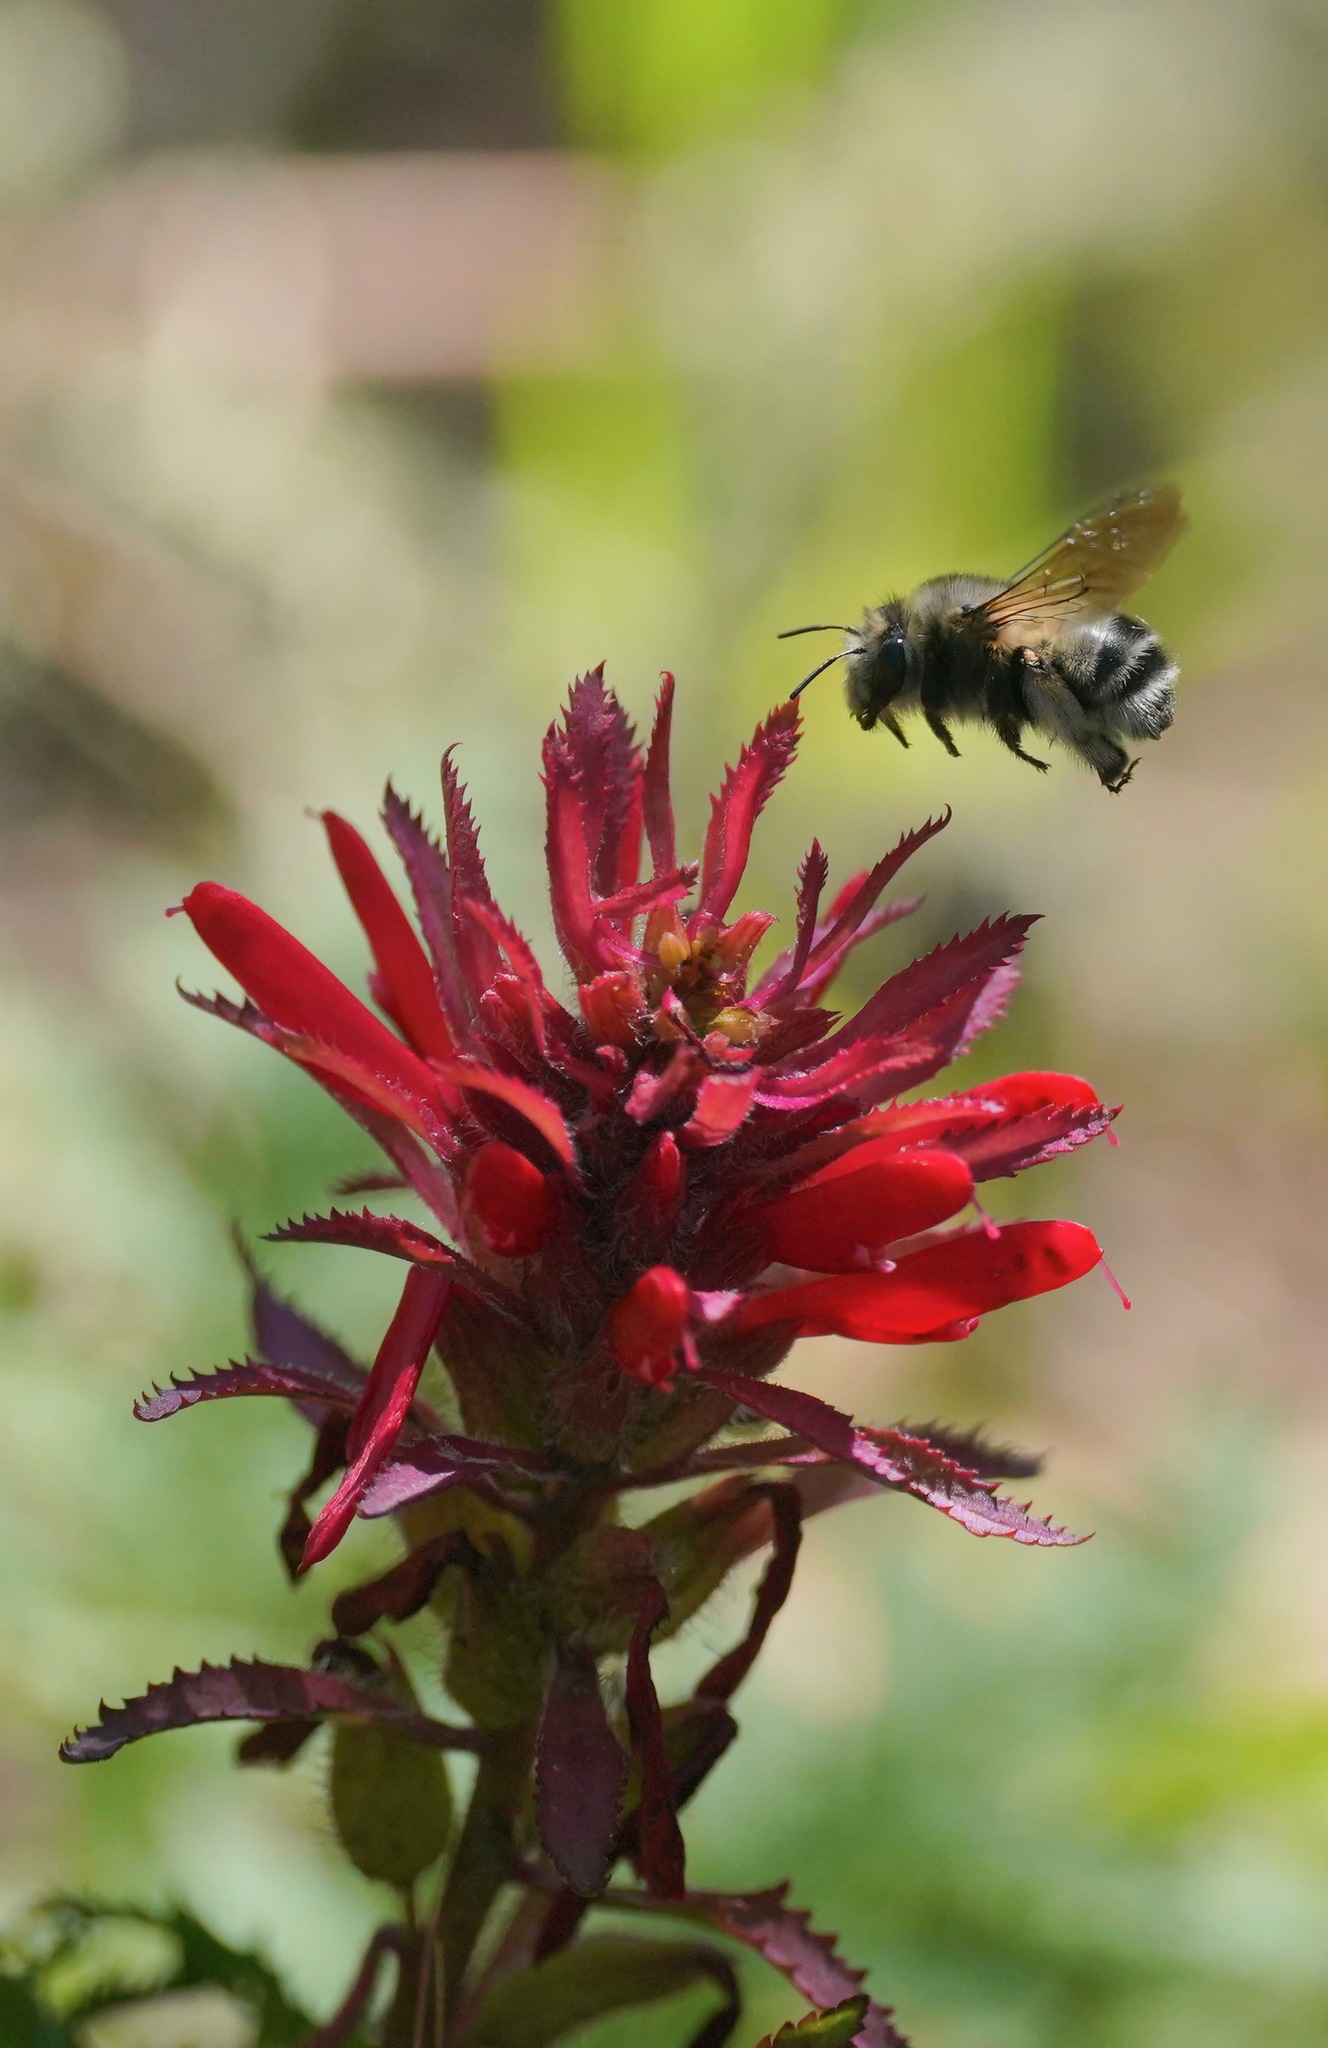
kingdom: Animalia
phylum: Arthropoda
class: Insecta
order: Hymenoptera
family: Apidae
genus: Anthophora
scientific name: Anthophora pacifica
